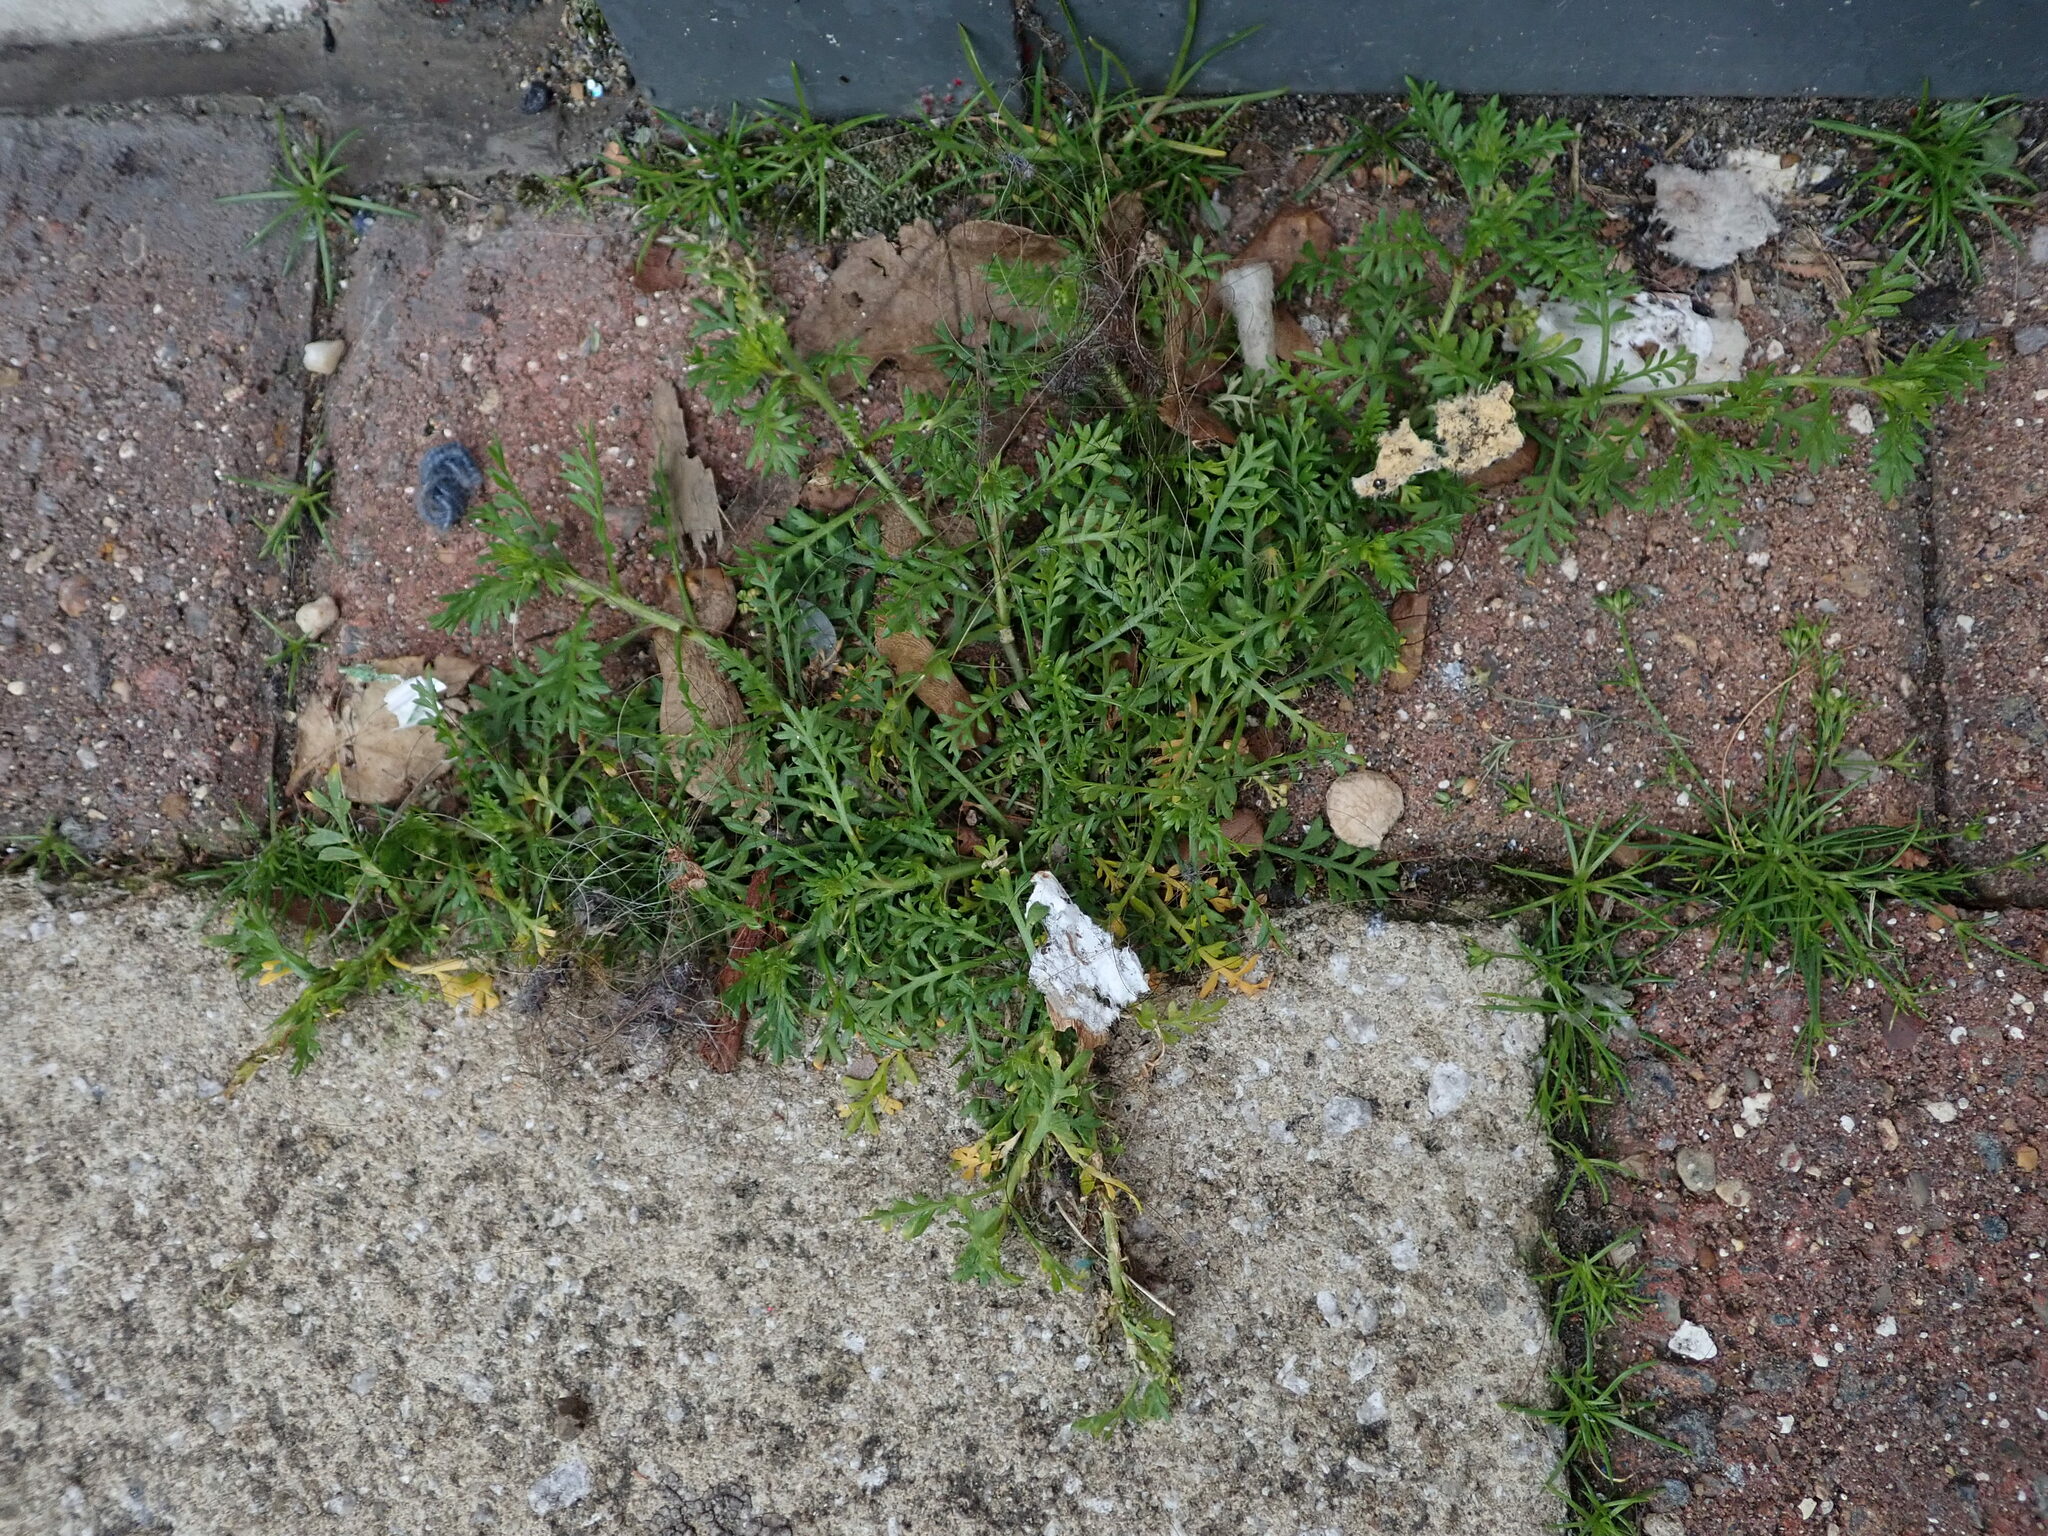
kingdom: Plantae
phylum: Tracheophyta
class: Magnoliopsida
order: Brassicales
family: Brassicaceae
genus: Lepidium
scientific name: Lepidium didymum
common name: Lesser swinecress
